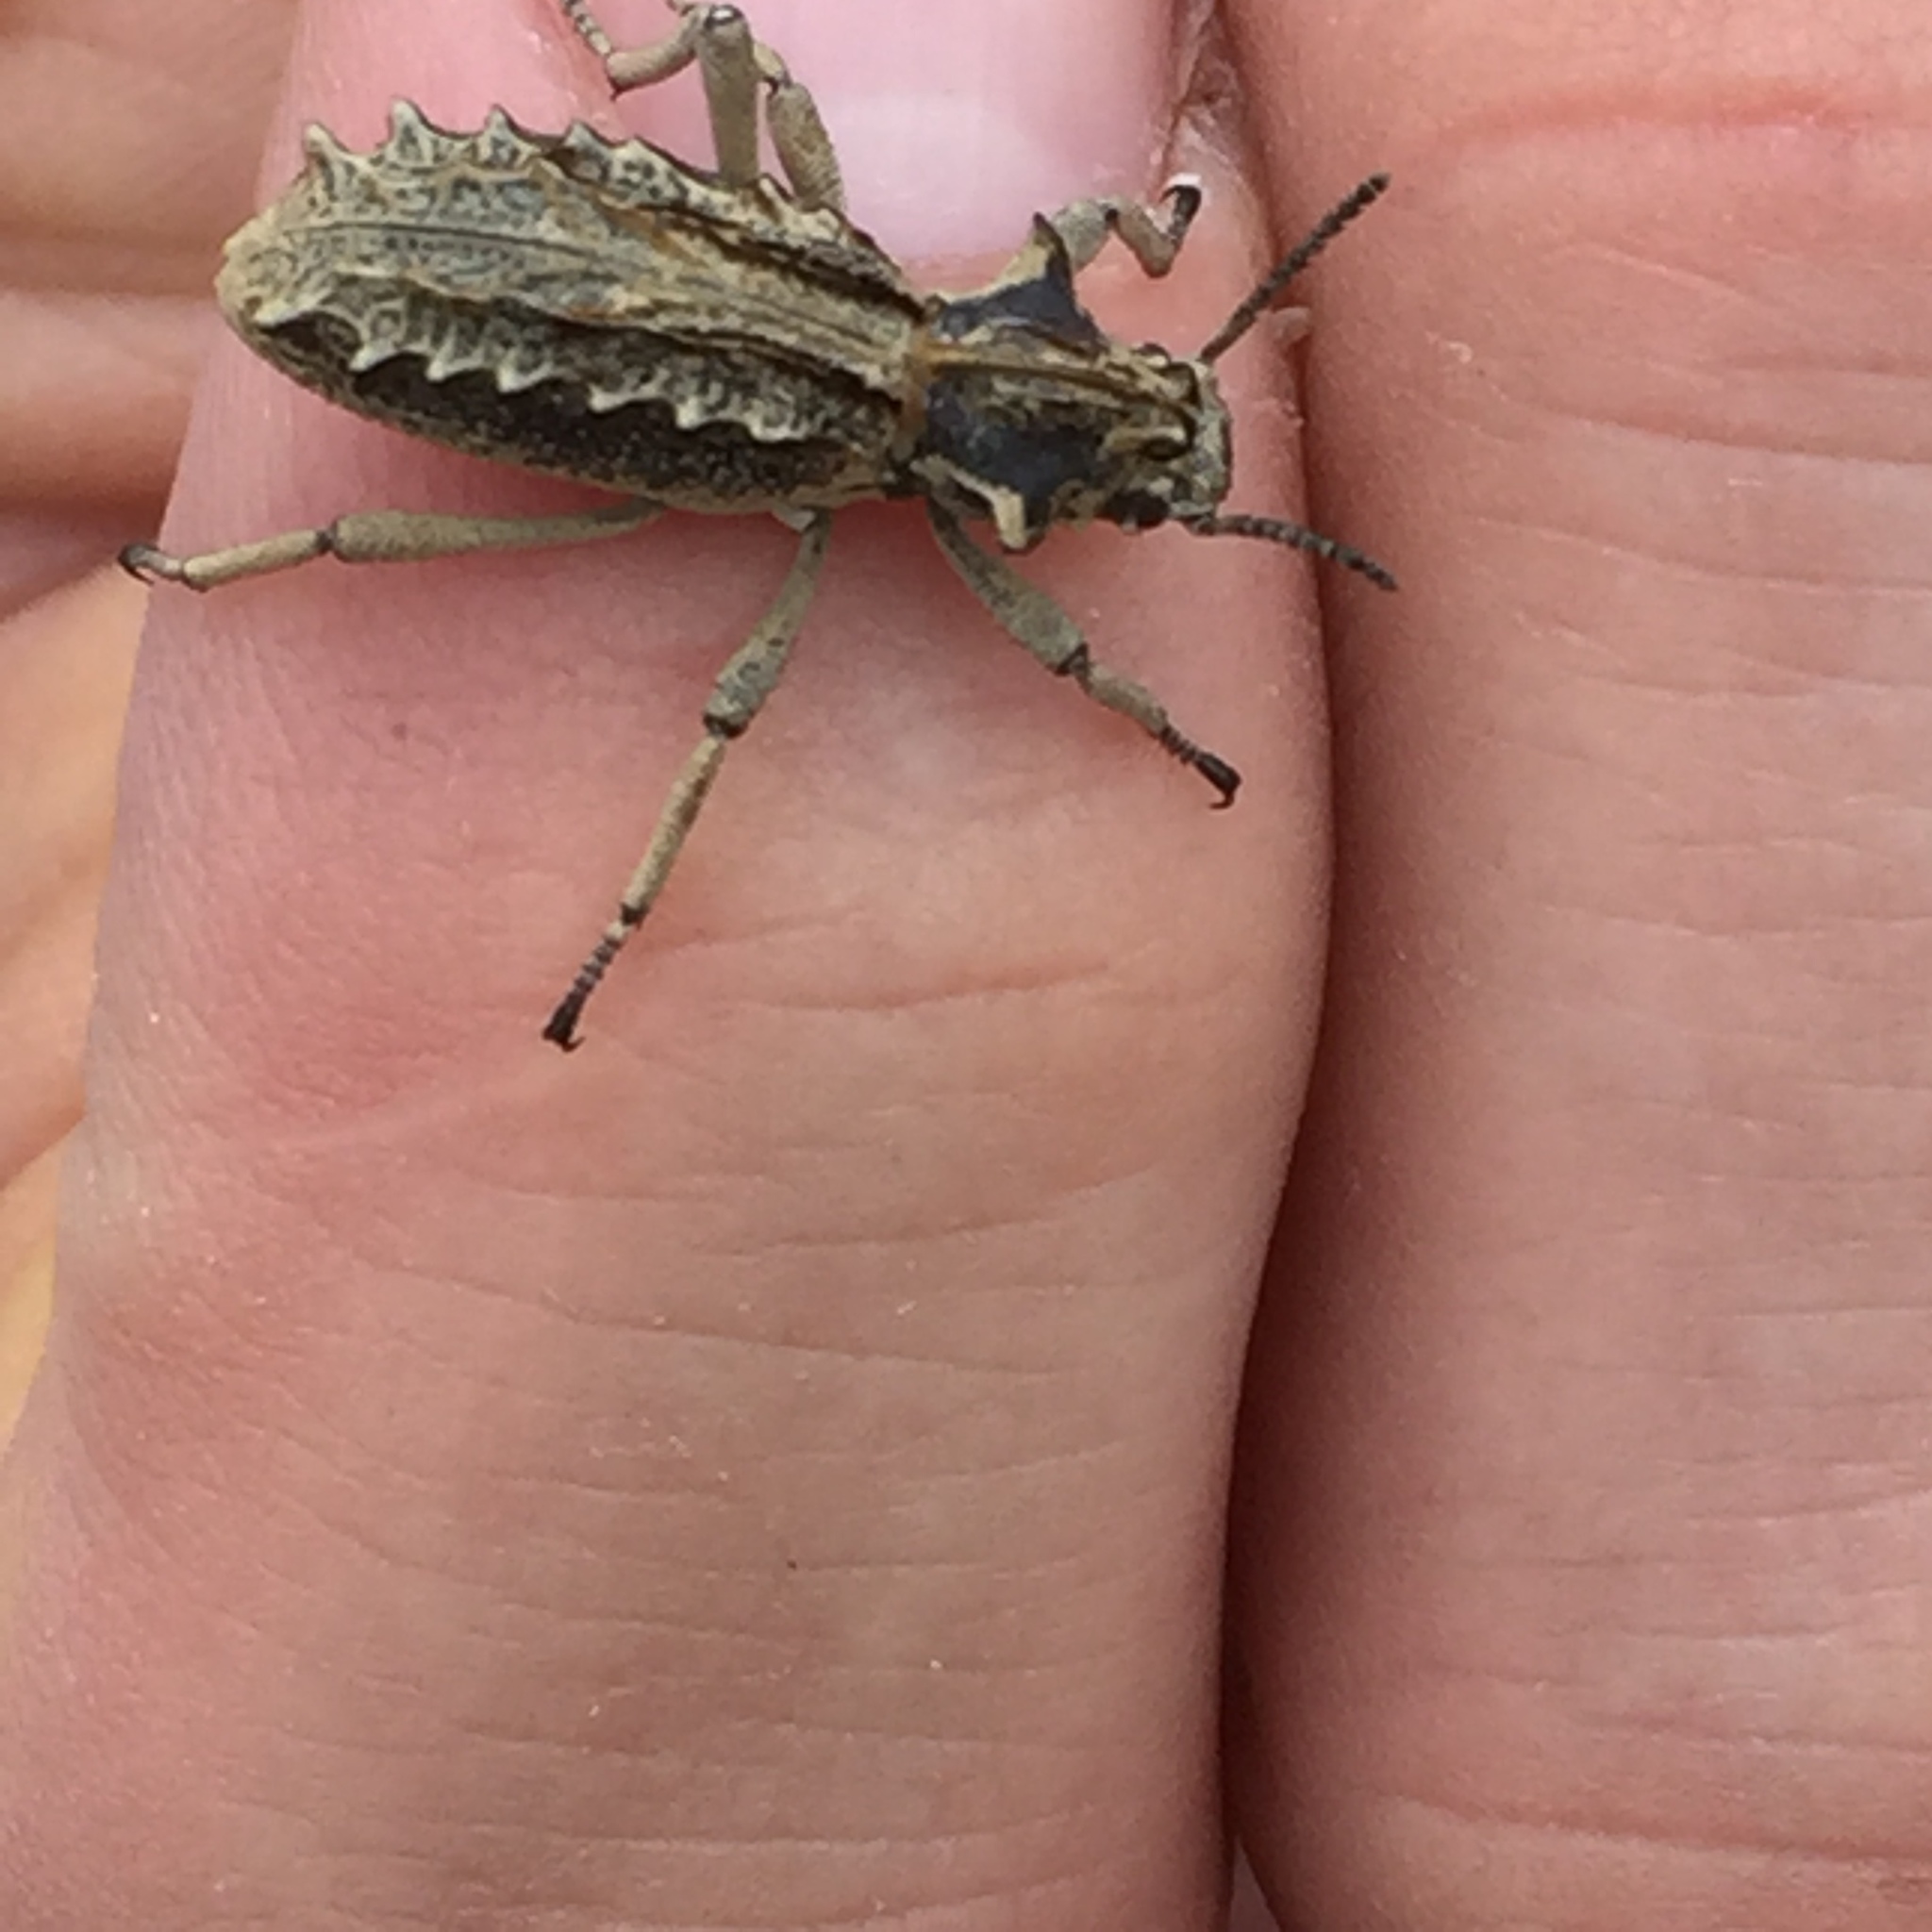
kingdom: Animalia
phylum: Arthropoda
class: Insecta
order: Coleoptera
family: Tenebrionidae
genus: Sepidium
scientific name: Sepidium
